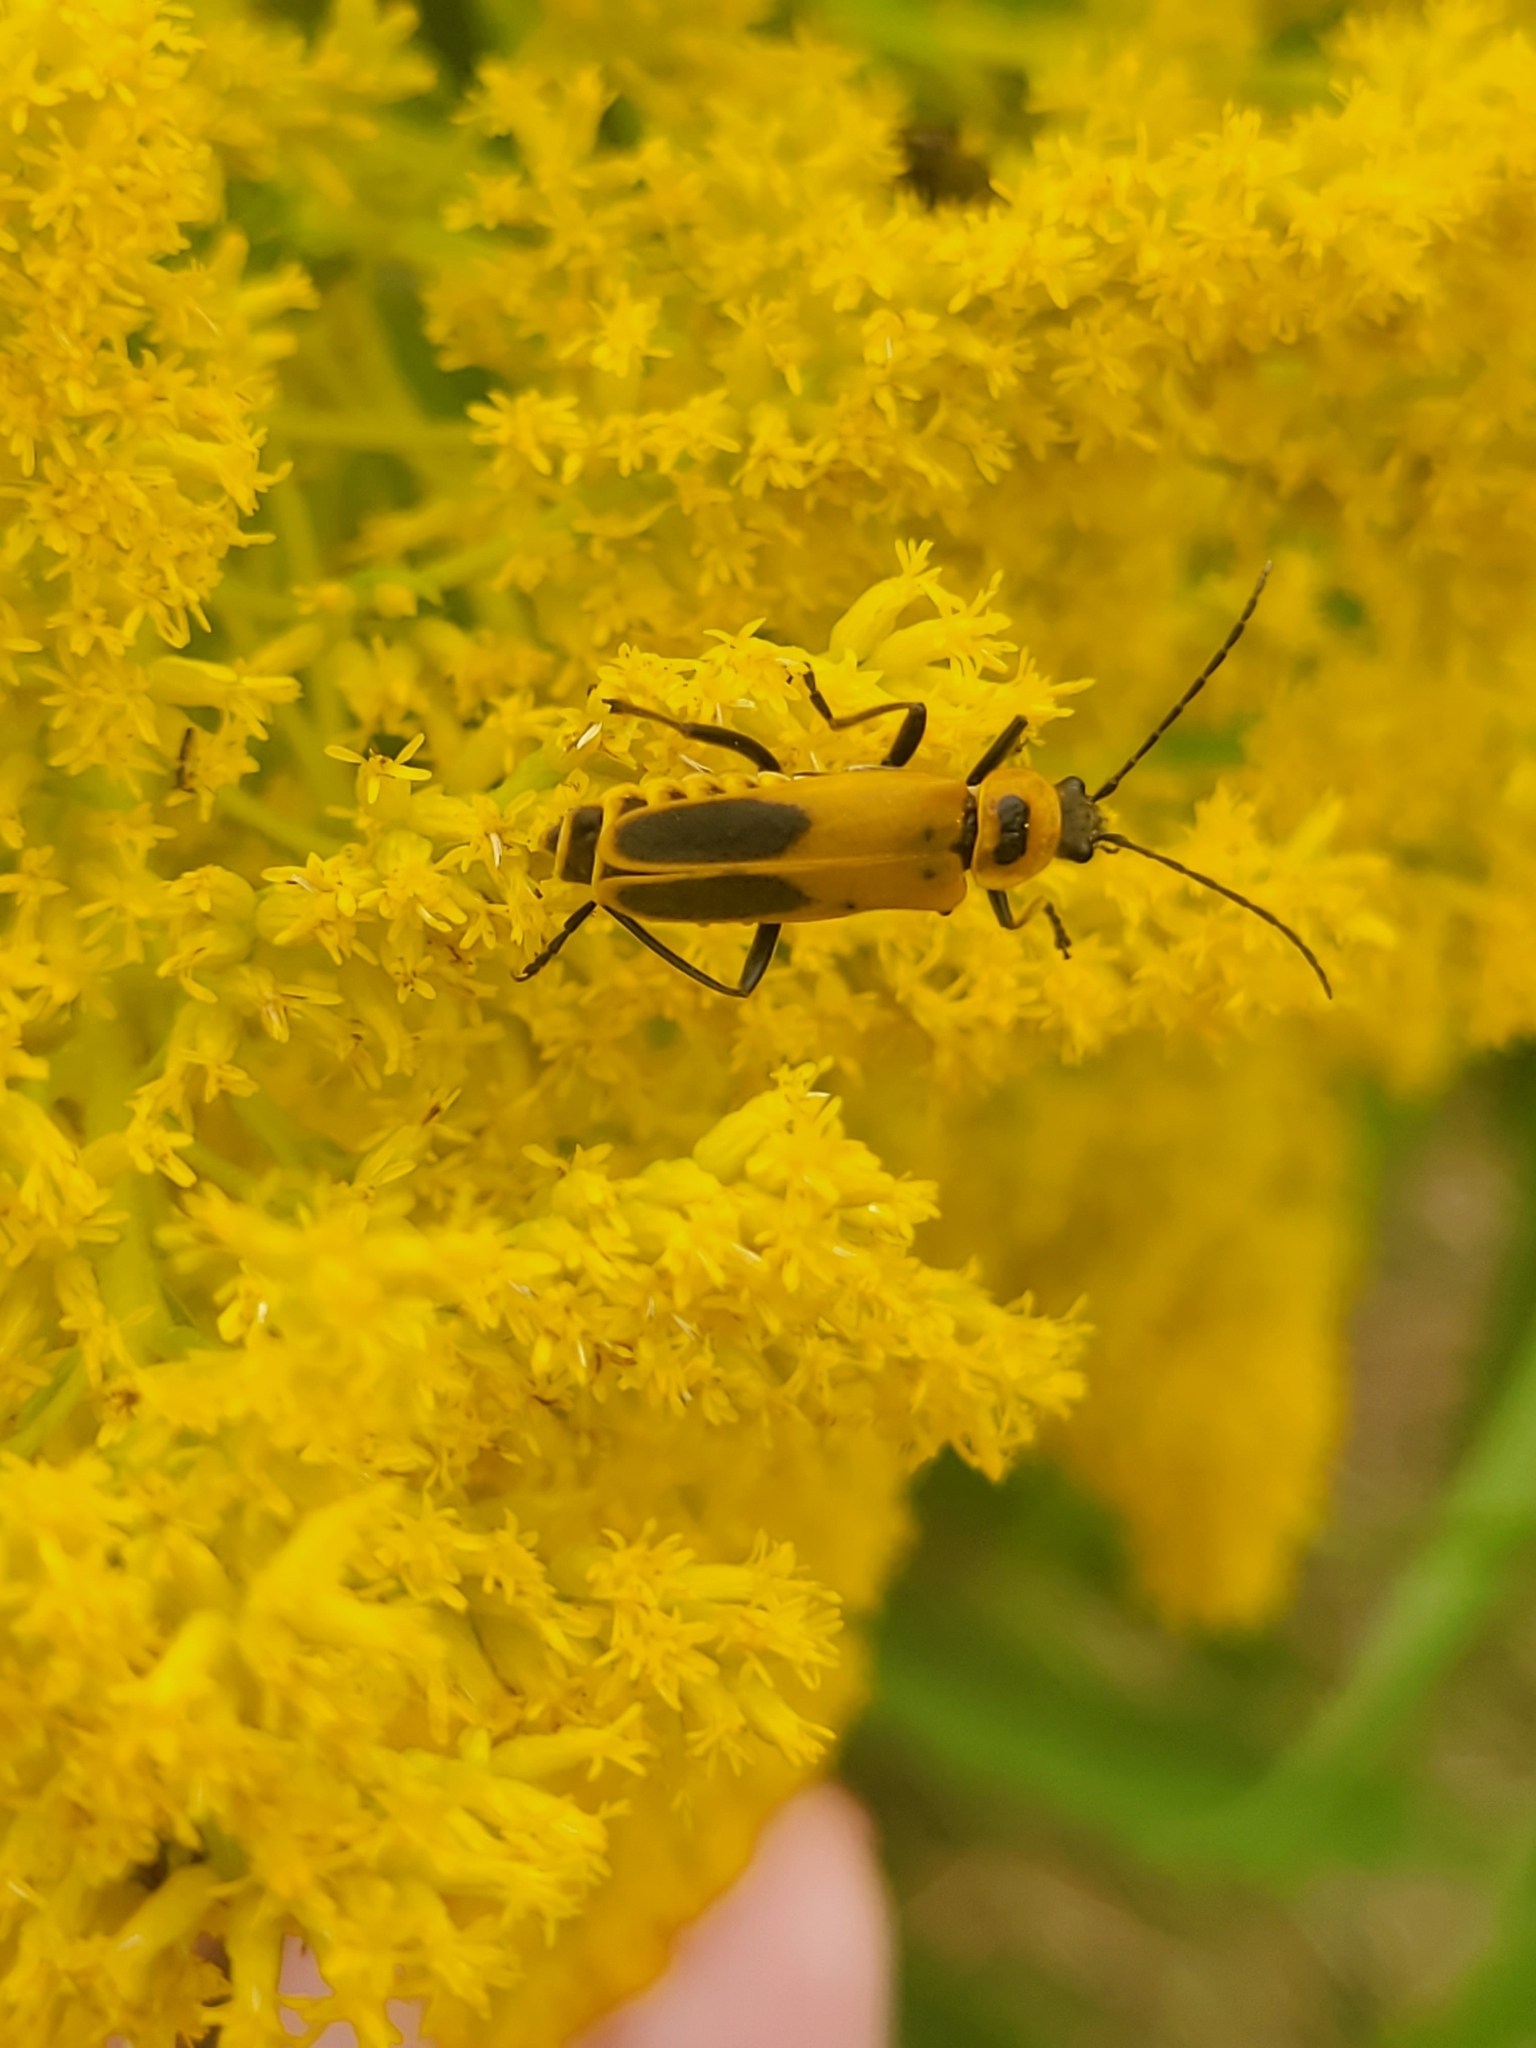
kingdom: Animalia
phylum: Arthropoda
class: Insecta
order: Coleoptera
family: Cantharidae
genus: Chauliognathus
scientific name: Chauliognathus pensylvanicus
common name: Goldenrod soldier beetle
